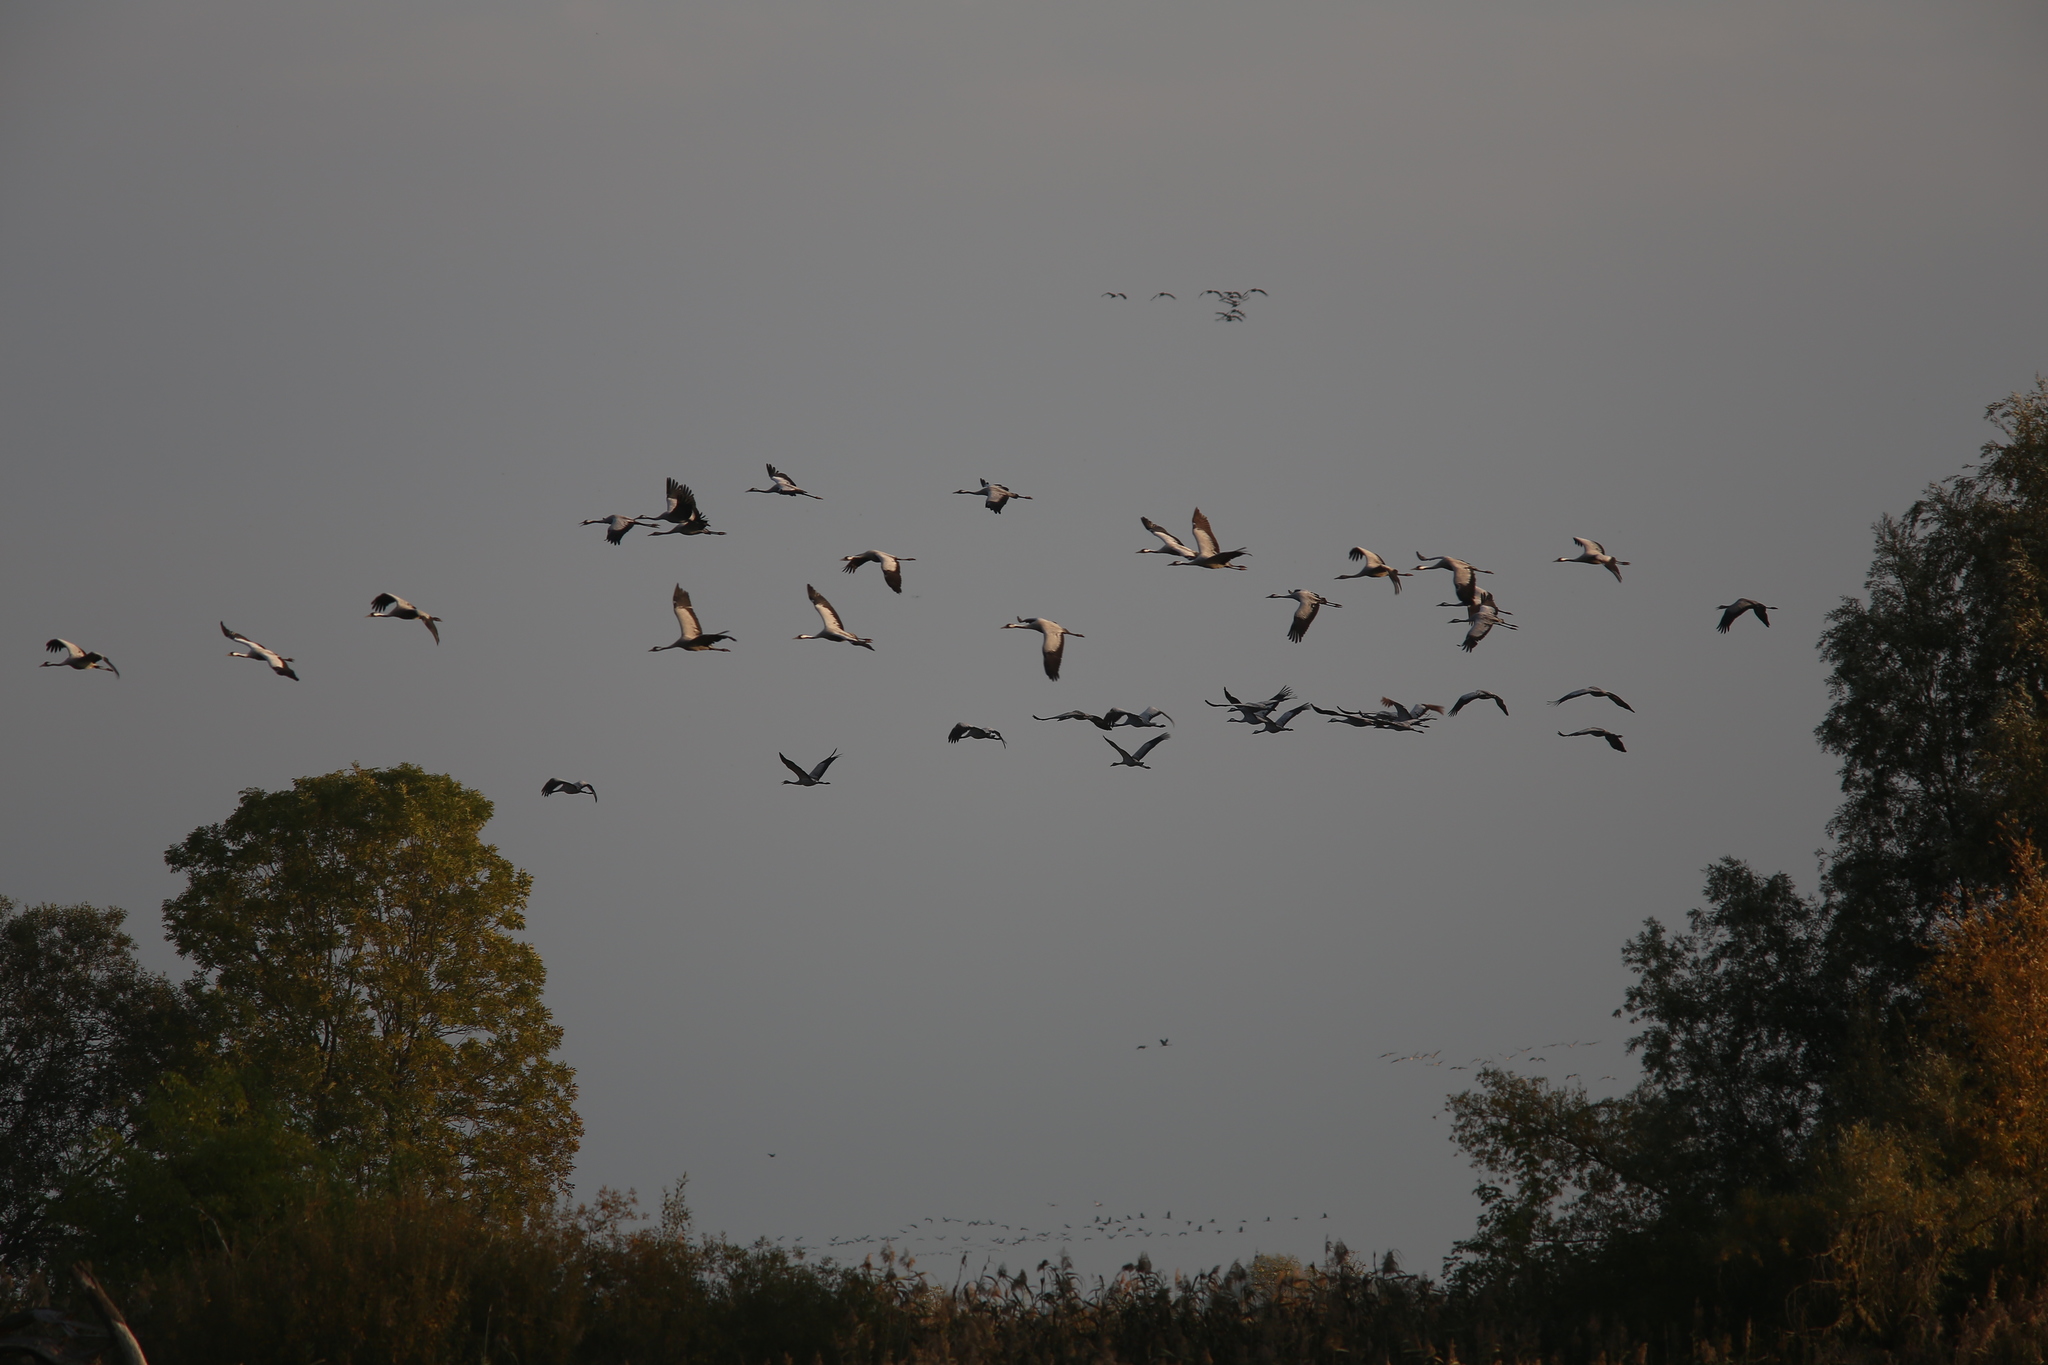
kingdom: Animalia
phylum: Chordata
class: Aves
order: Gruiformes
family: Gruidae
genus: Grus
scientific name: Grus grus
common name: Common crane
